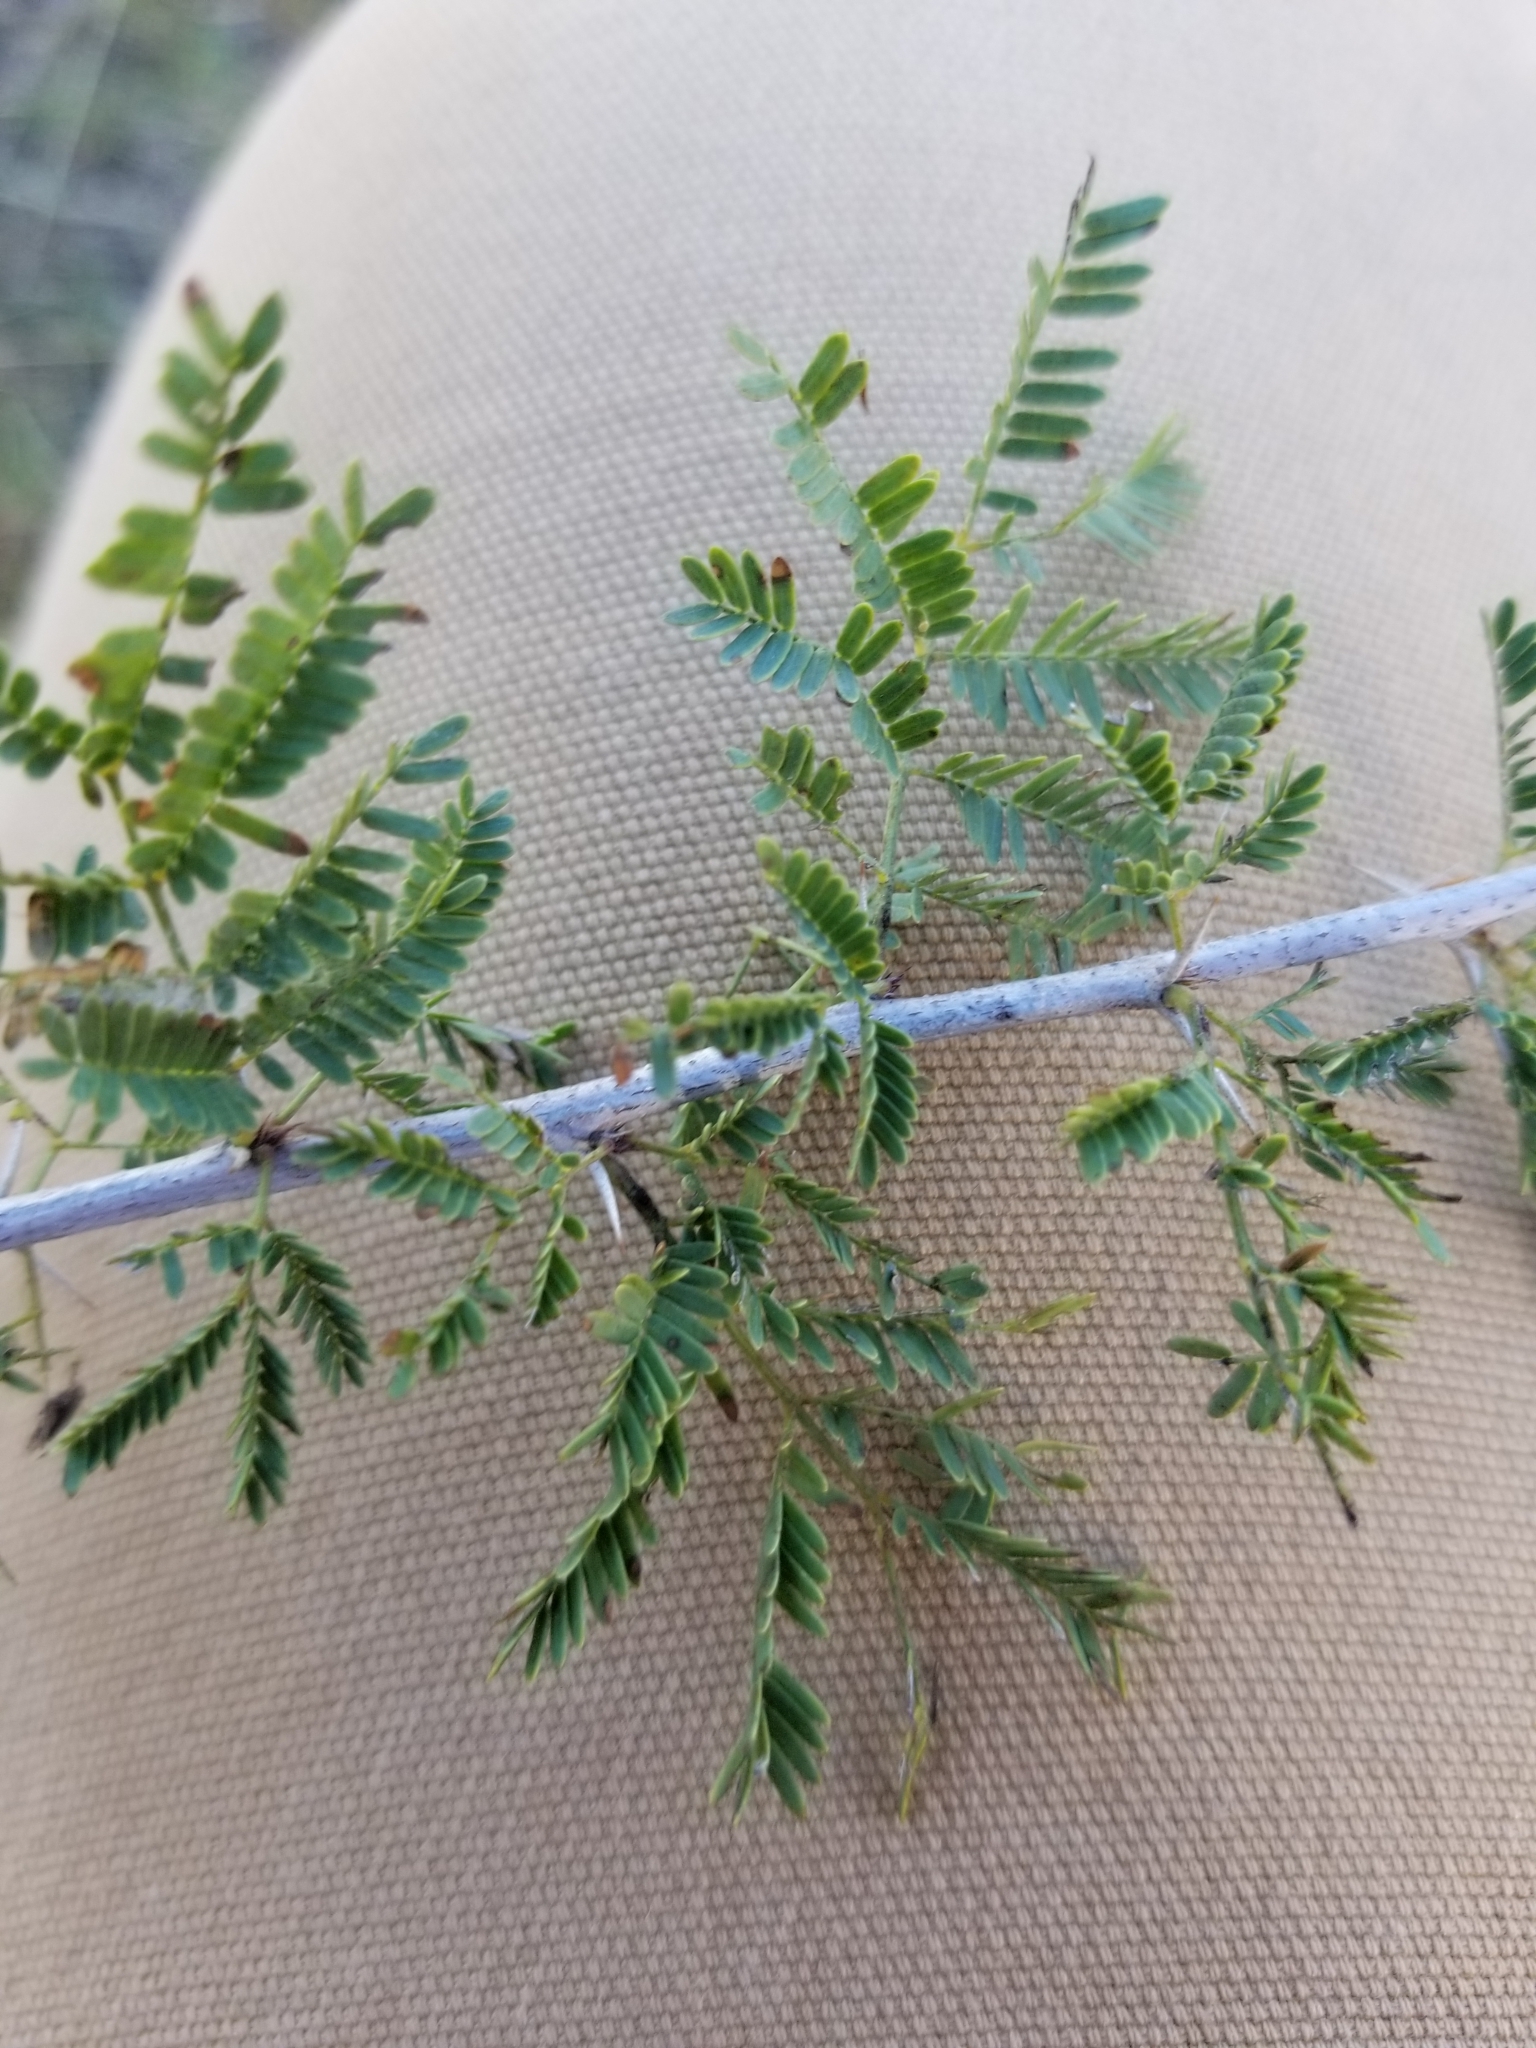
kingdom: Plantae
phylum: Tracheophyta
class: Magnoliopsida
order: Fabales
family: Fabaceae
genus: Vachellia
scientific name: Vachellia farnesiana
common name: Sweet acacia
